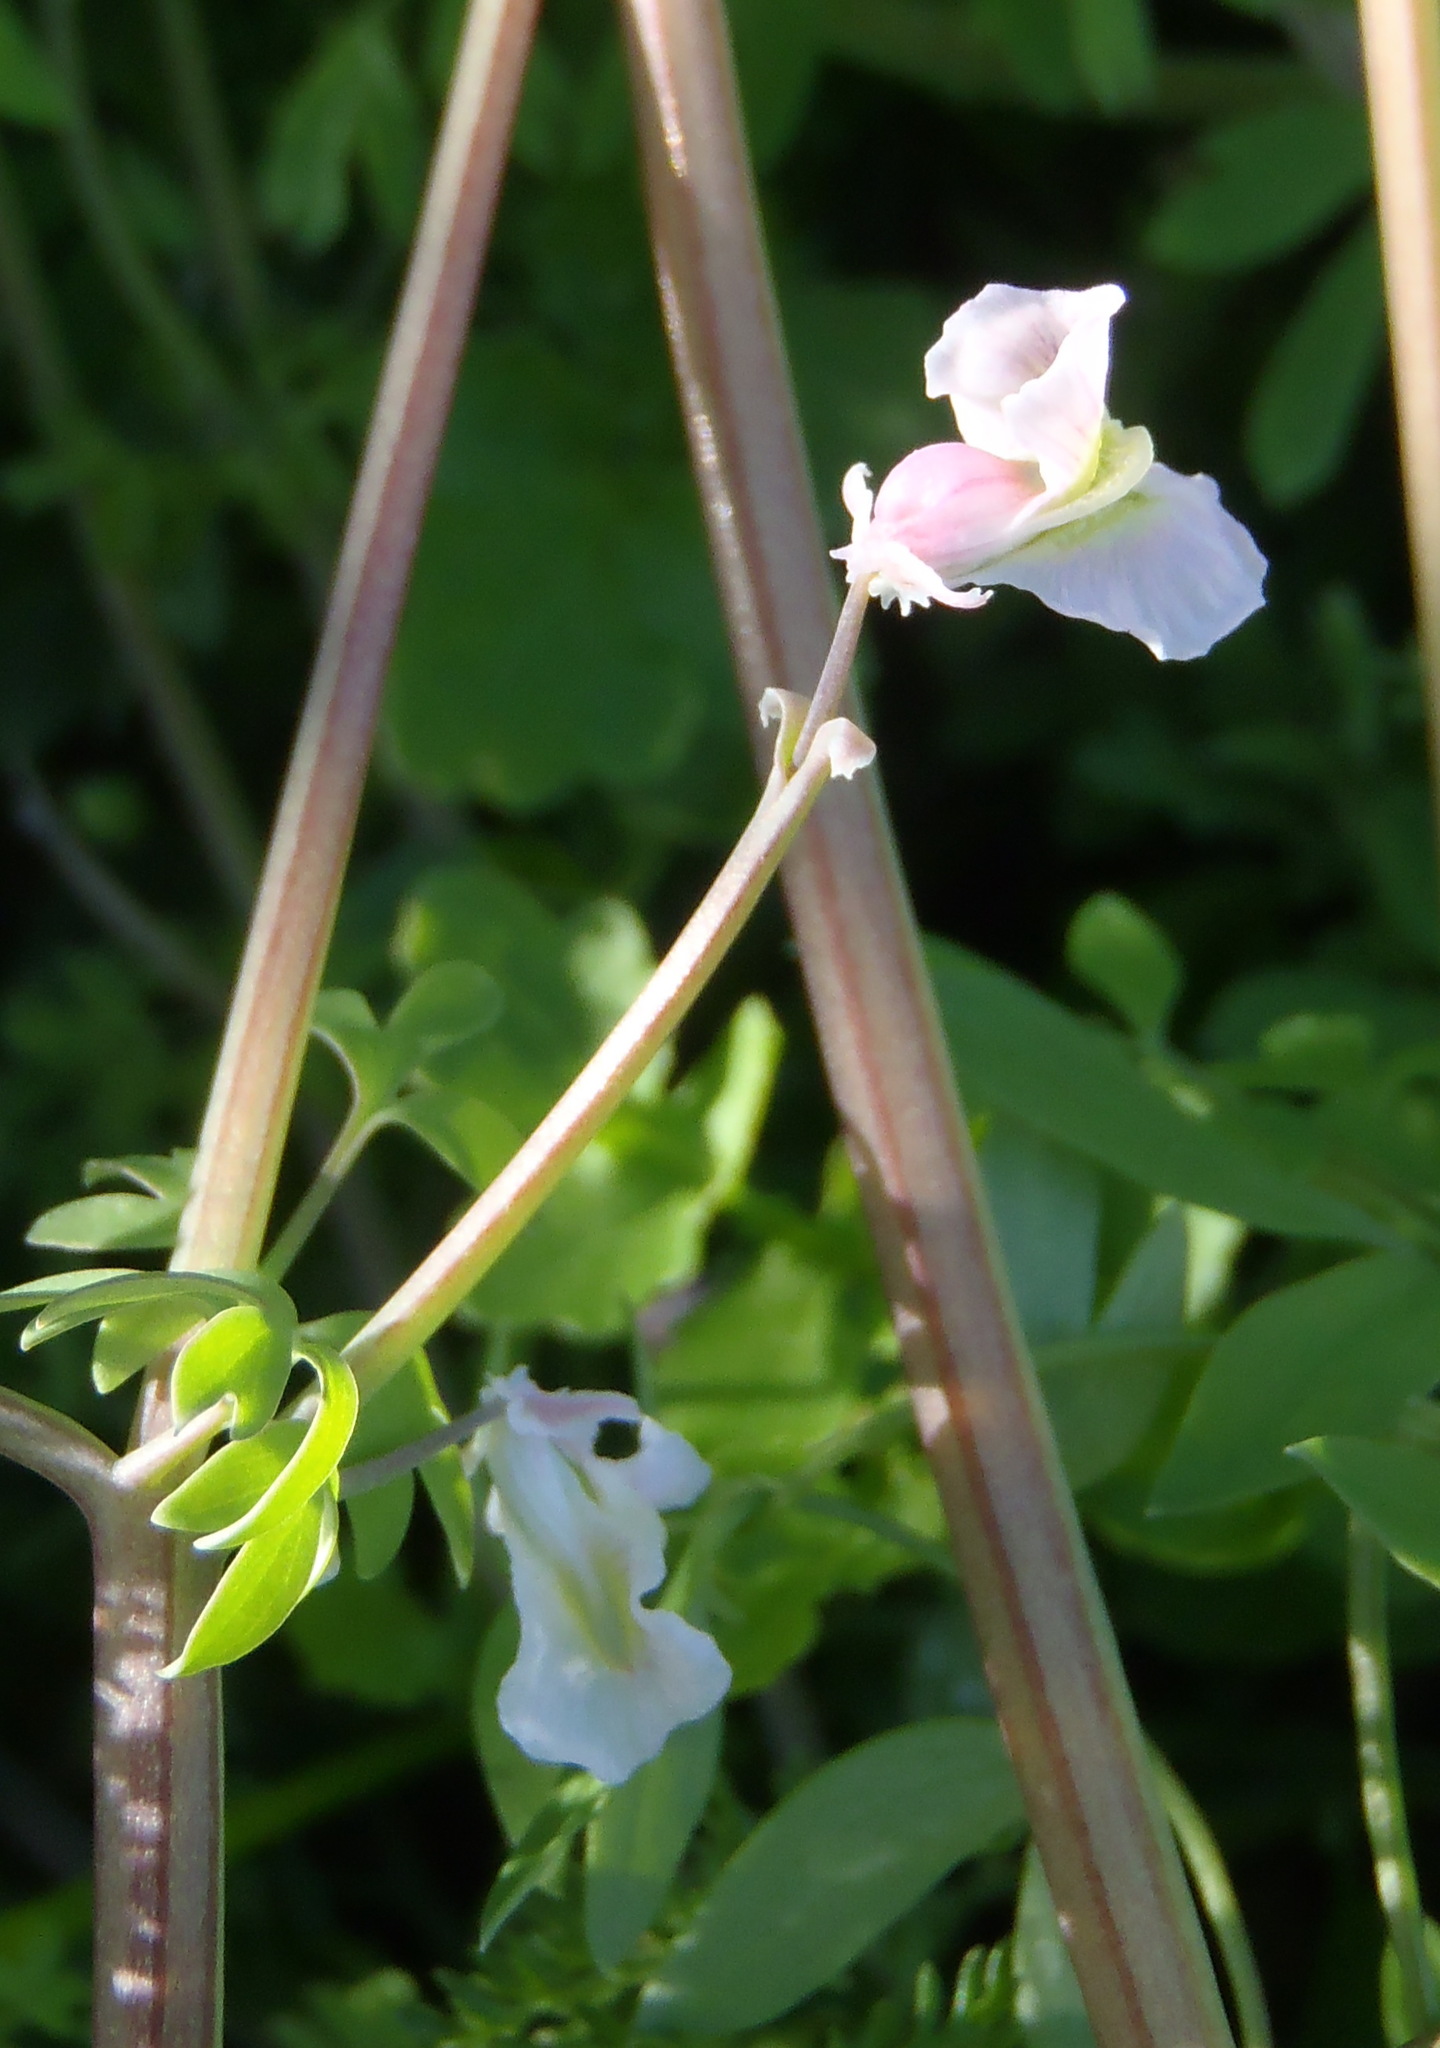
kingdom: Plantae
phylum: Tracheophyta
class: Magnoliopsida
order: Ranunculales
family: Papaveraceae
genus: Cysticapnos
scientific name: Cysticapnos vesicaria
